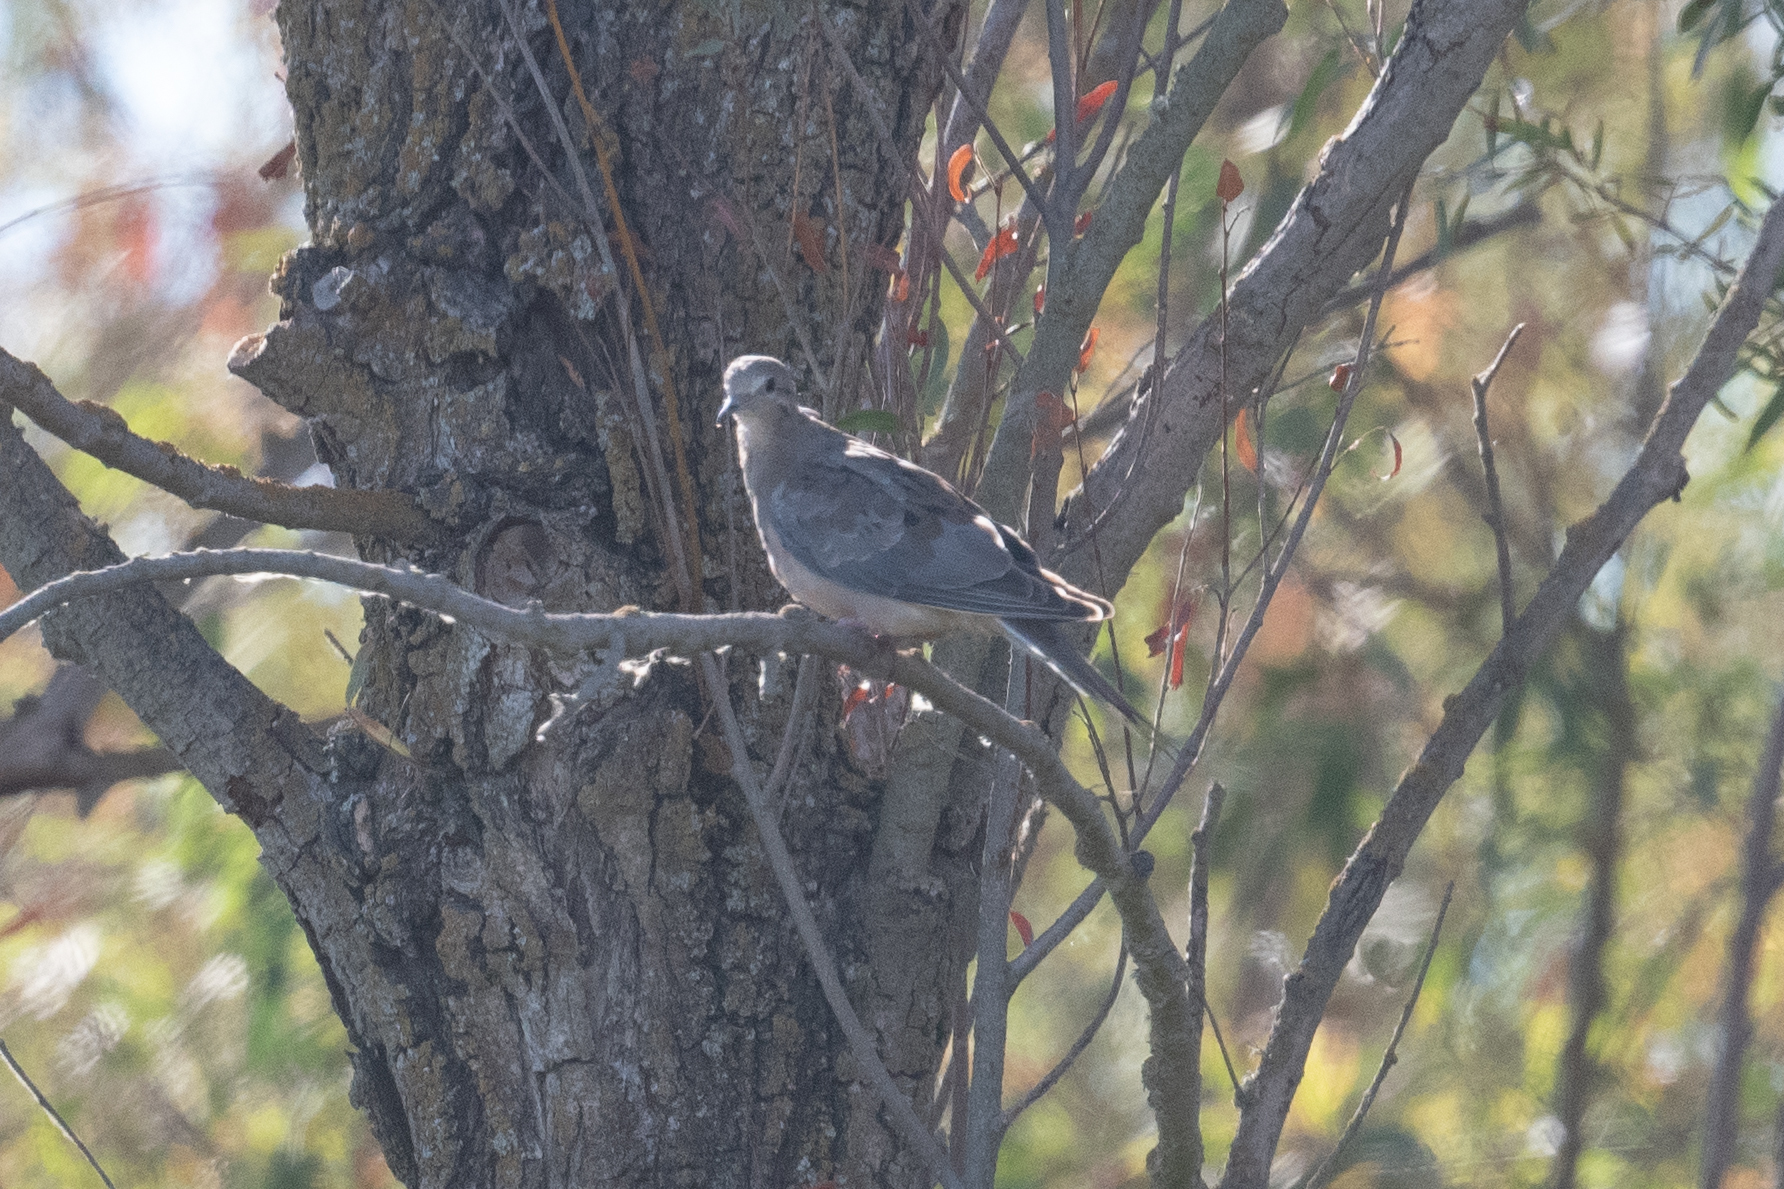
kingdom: Animalia
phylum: Chordata
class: Aves
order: Columbiformes
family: Columbidae
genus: Zenaida
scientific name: Zenaida macroura
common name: Mourning dove
